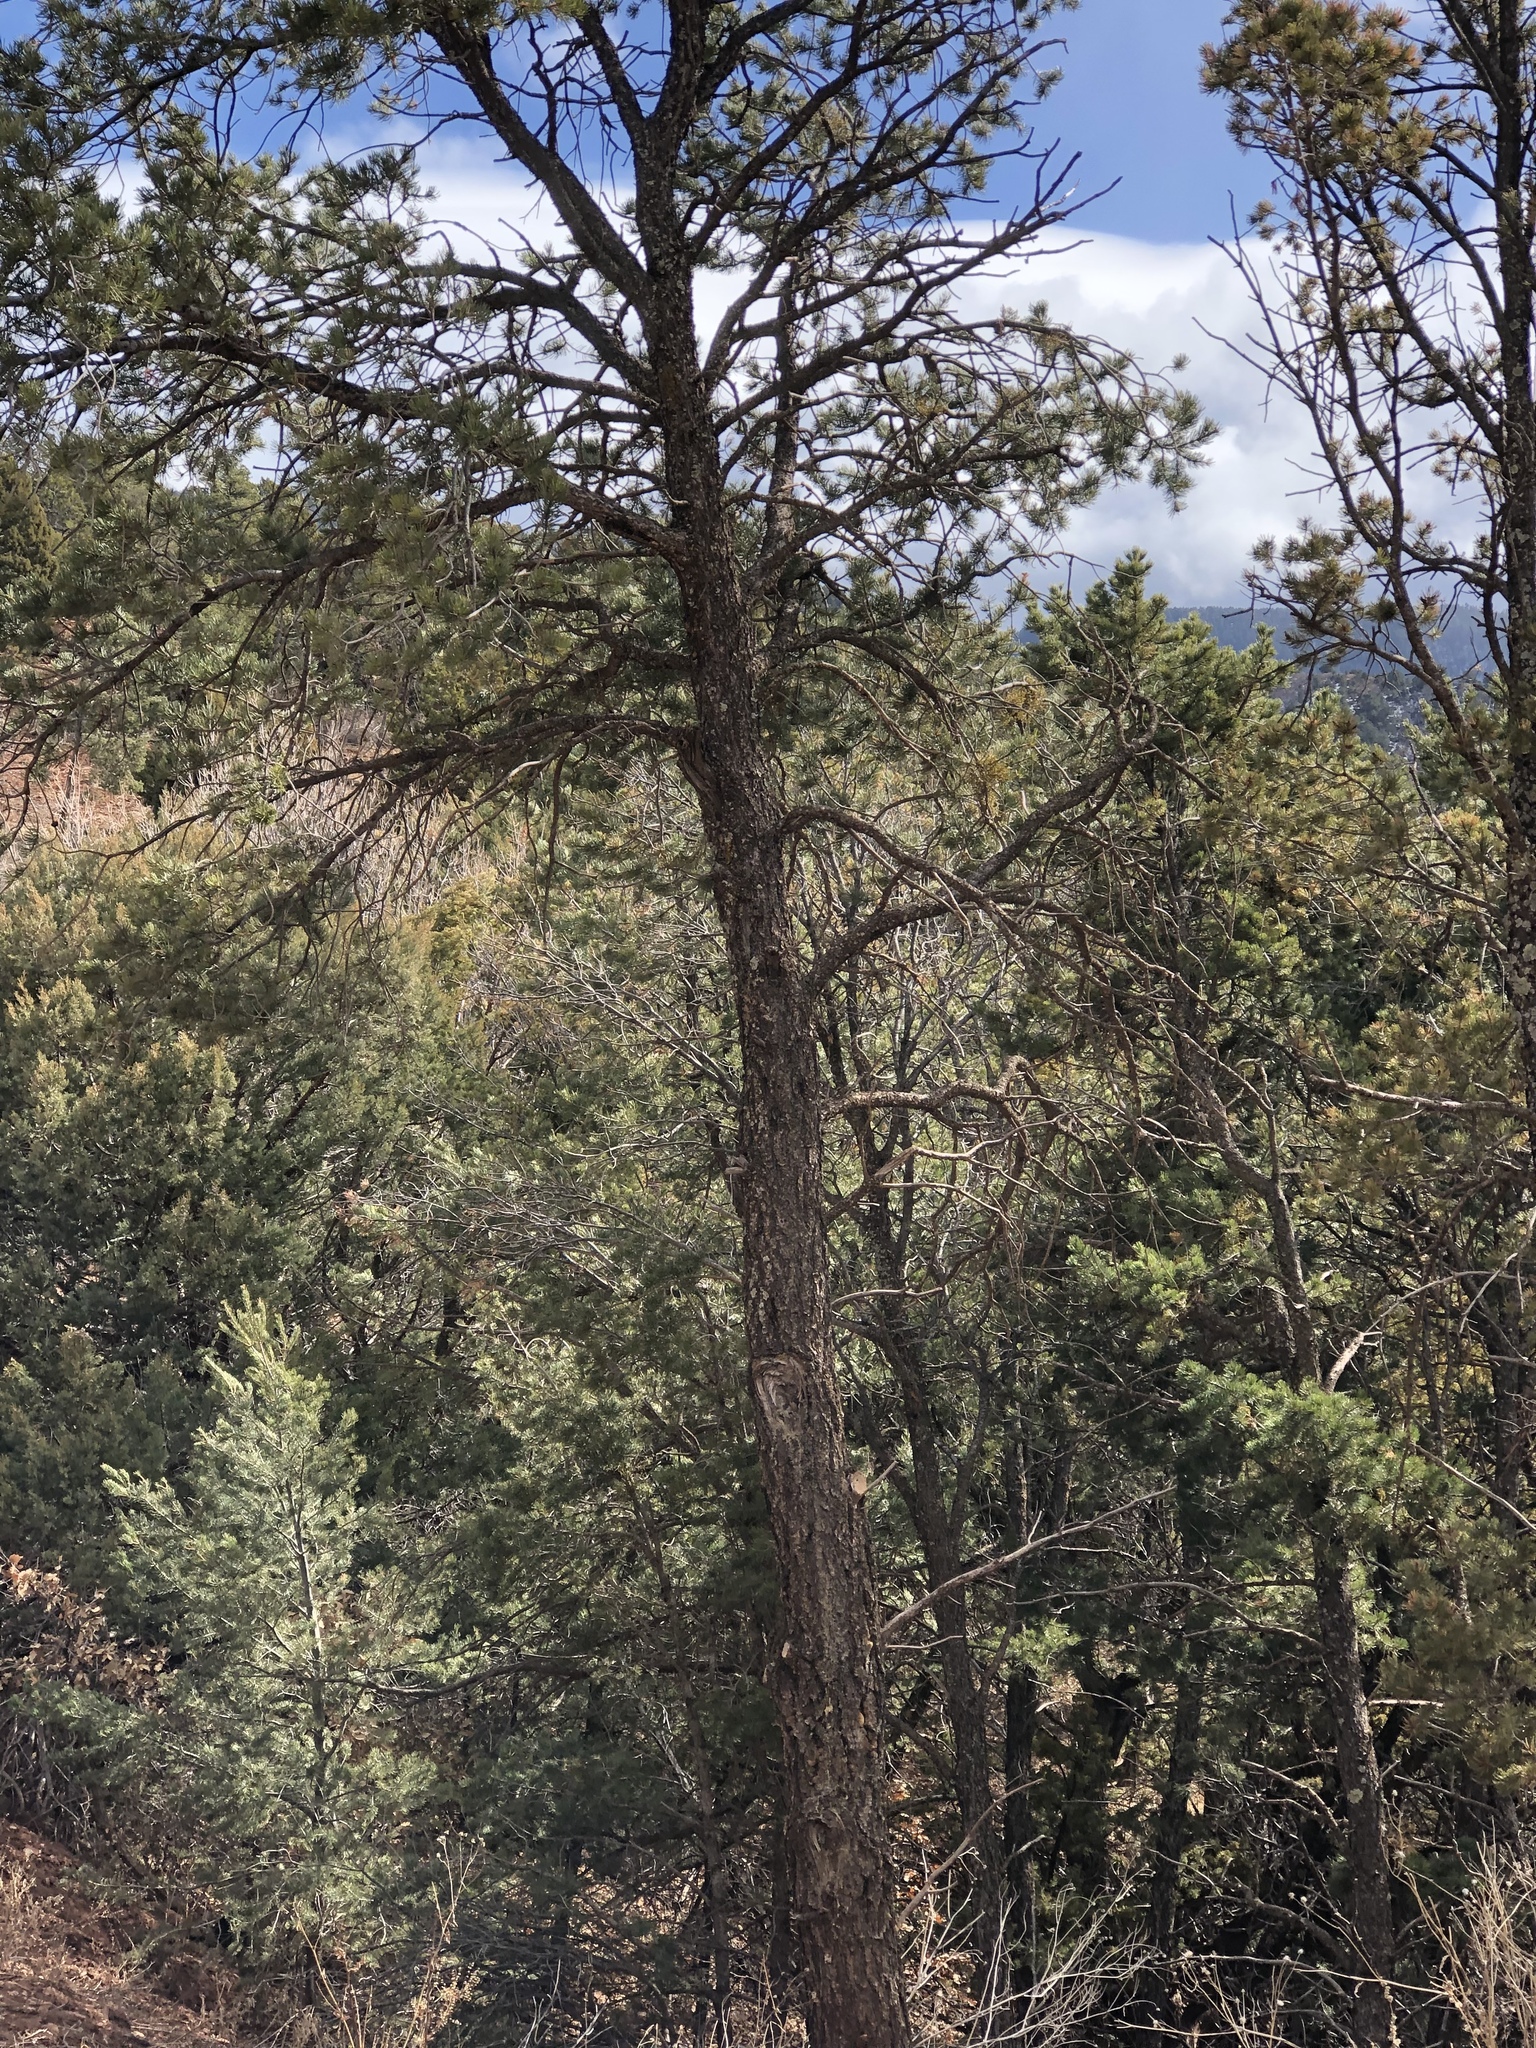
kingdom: Plantae
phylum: Tracheophyta
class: Pinopsida
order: Pinales
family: Pinaceae
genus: Pinus
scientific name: Pinus edulis
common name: Colorado pinyon
